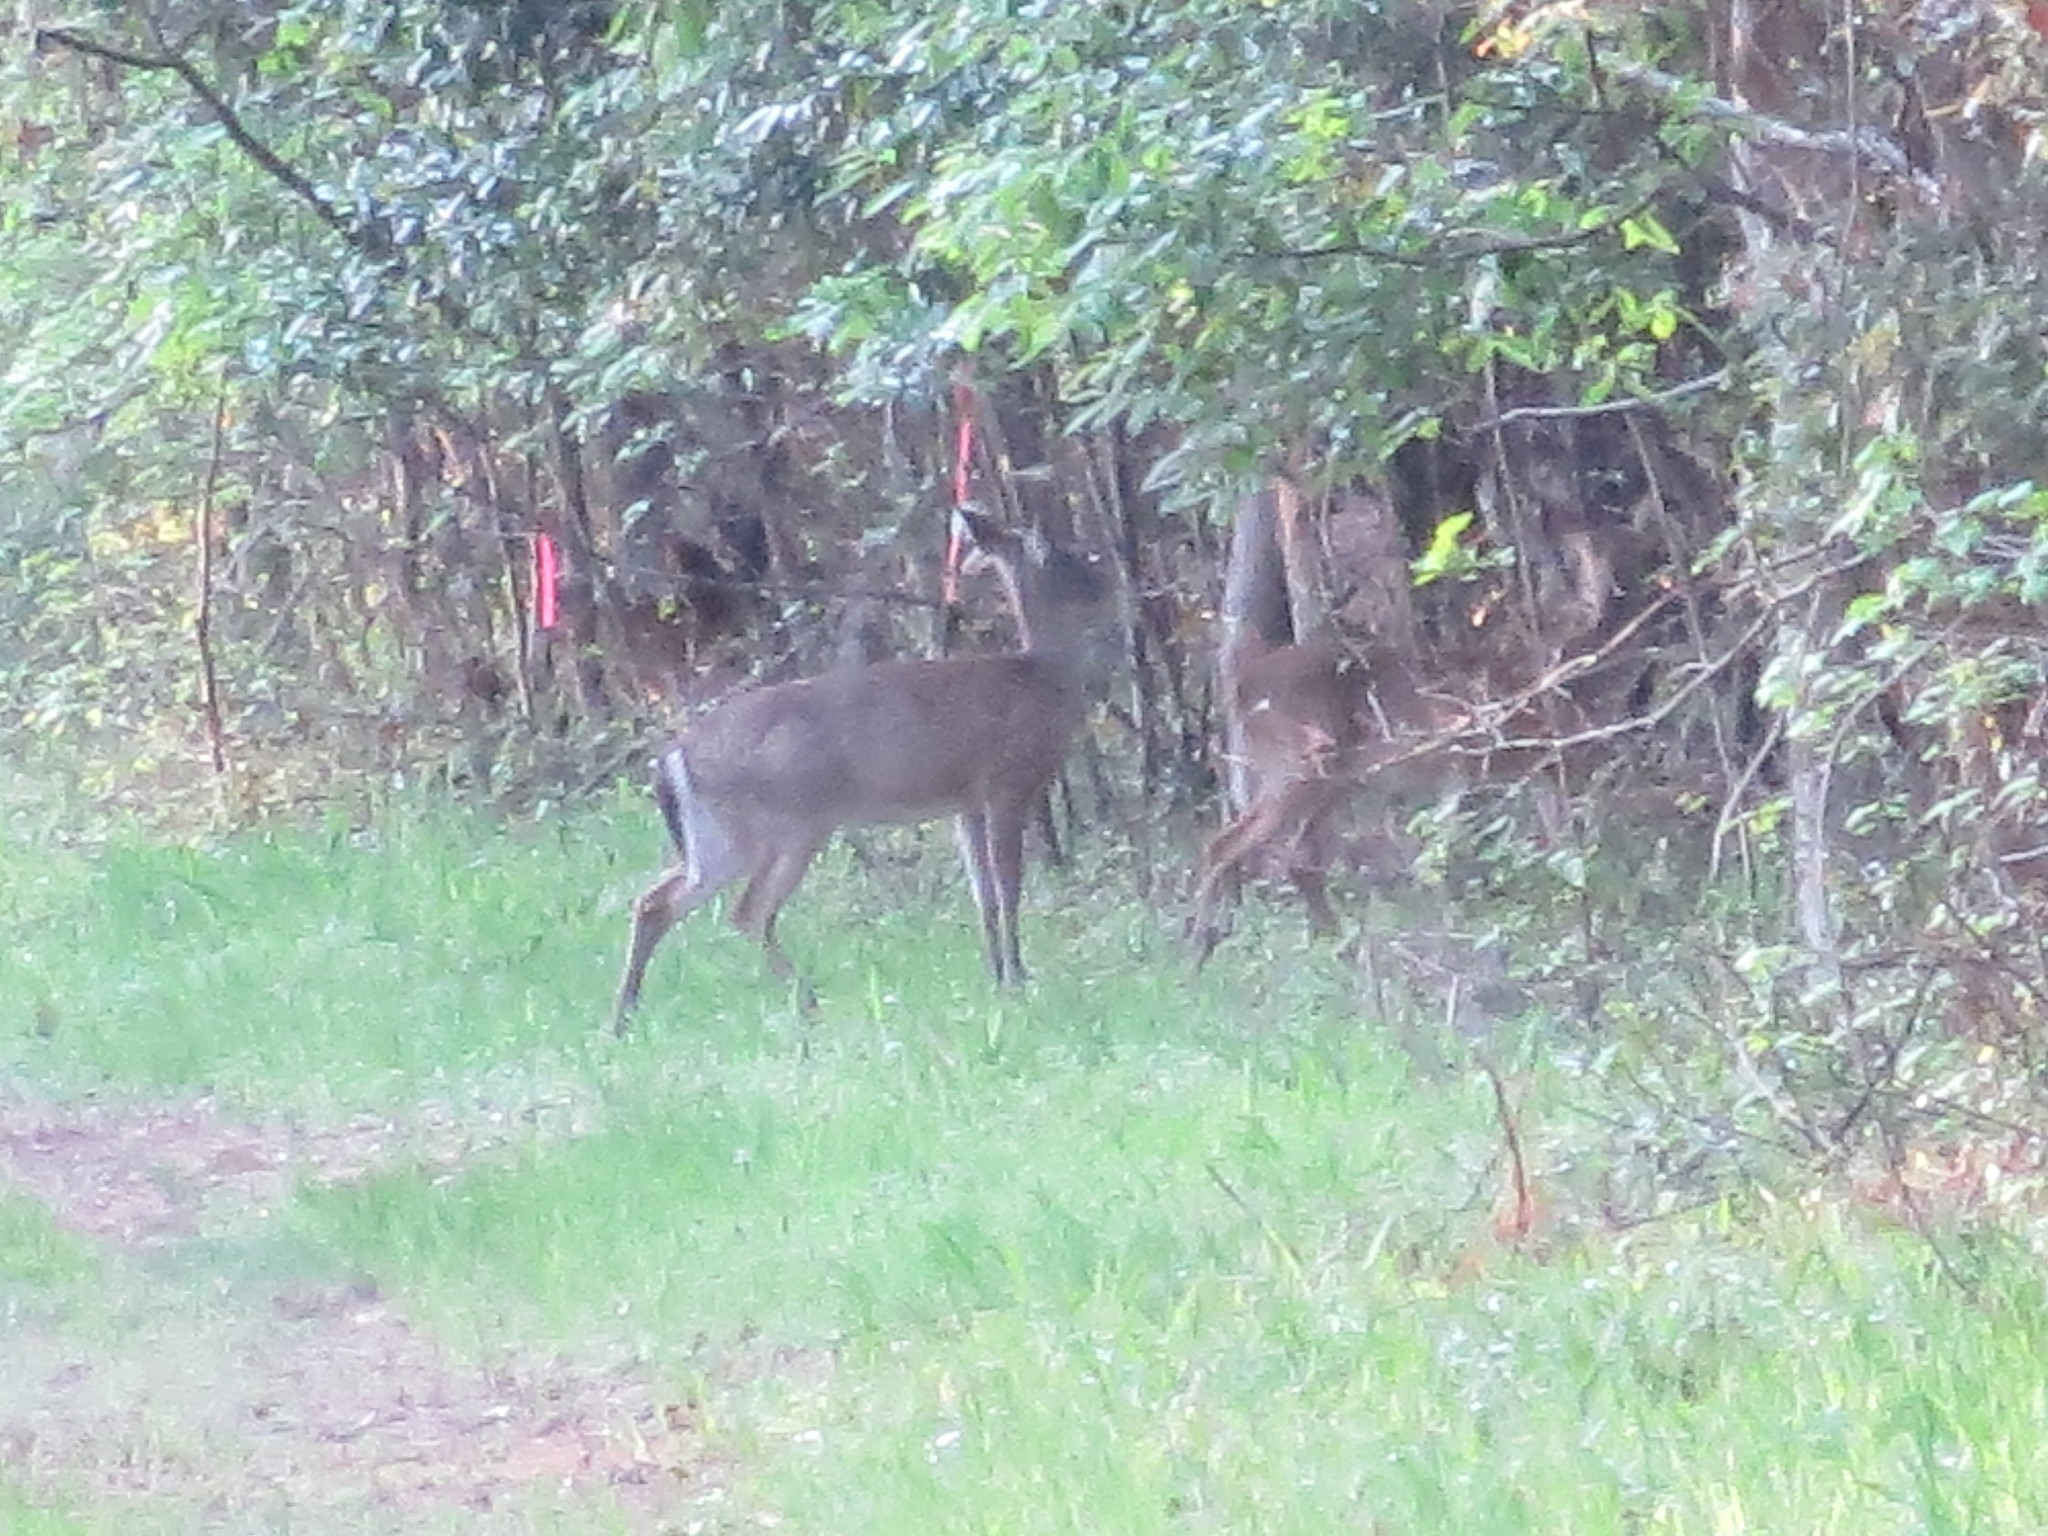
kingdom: Animalia
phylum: Chordata
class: Mammalia
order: Artiodactyla
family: Cervidae
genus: Odocoileus
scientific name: Odocoileus virginianus
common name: White-tailed deer
